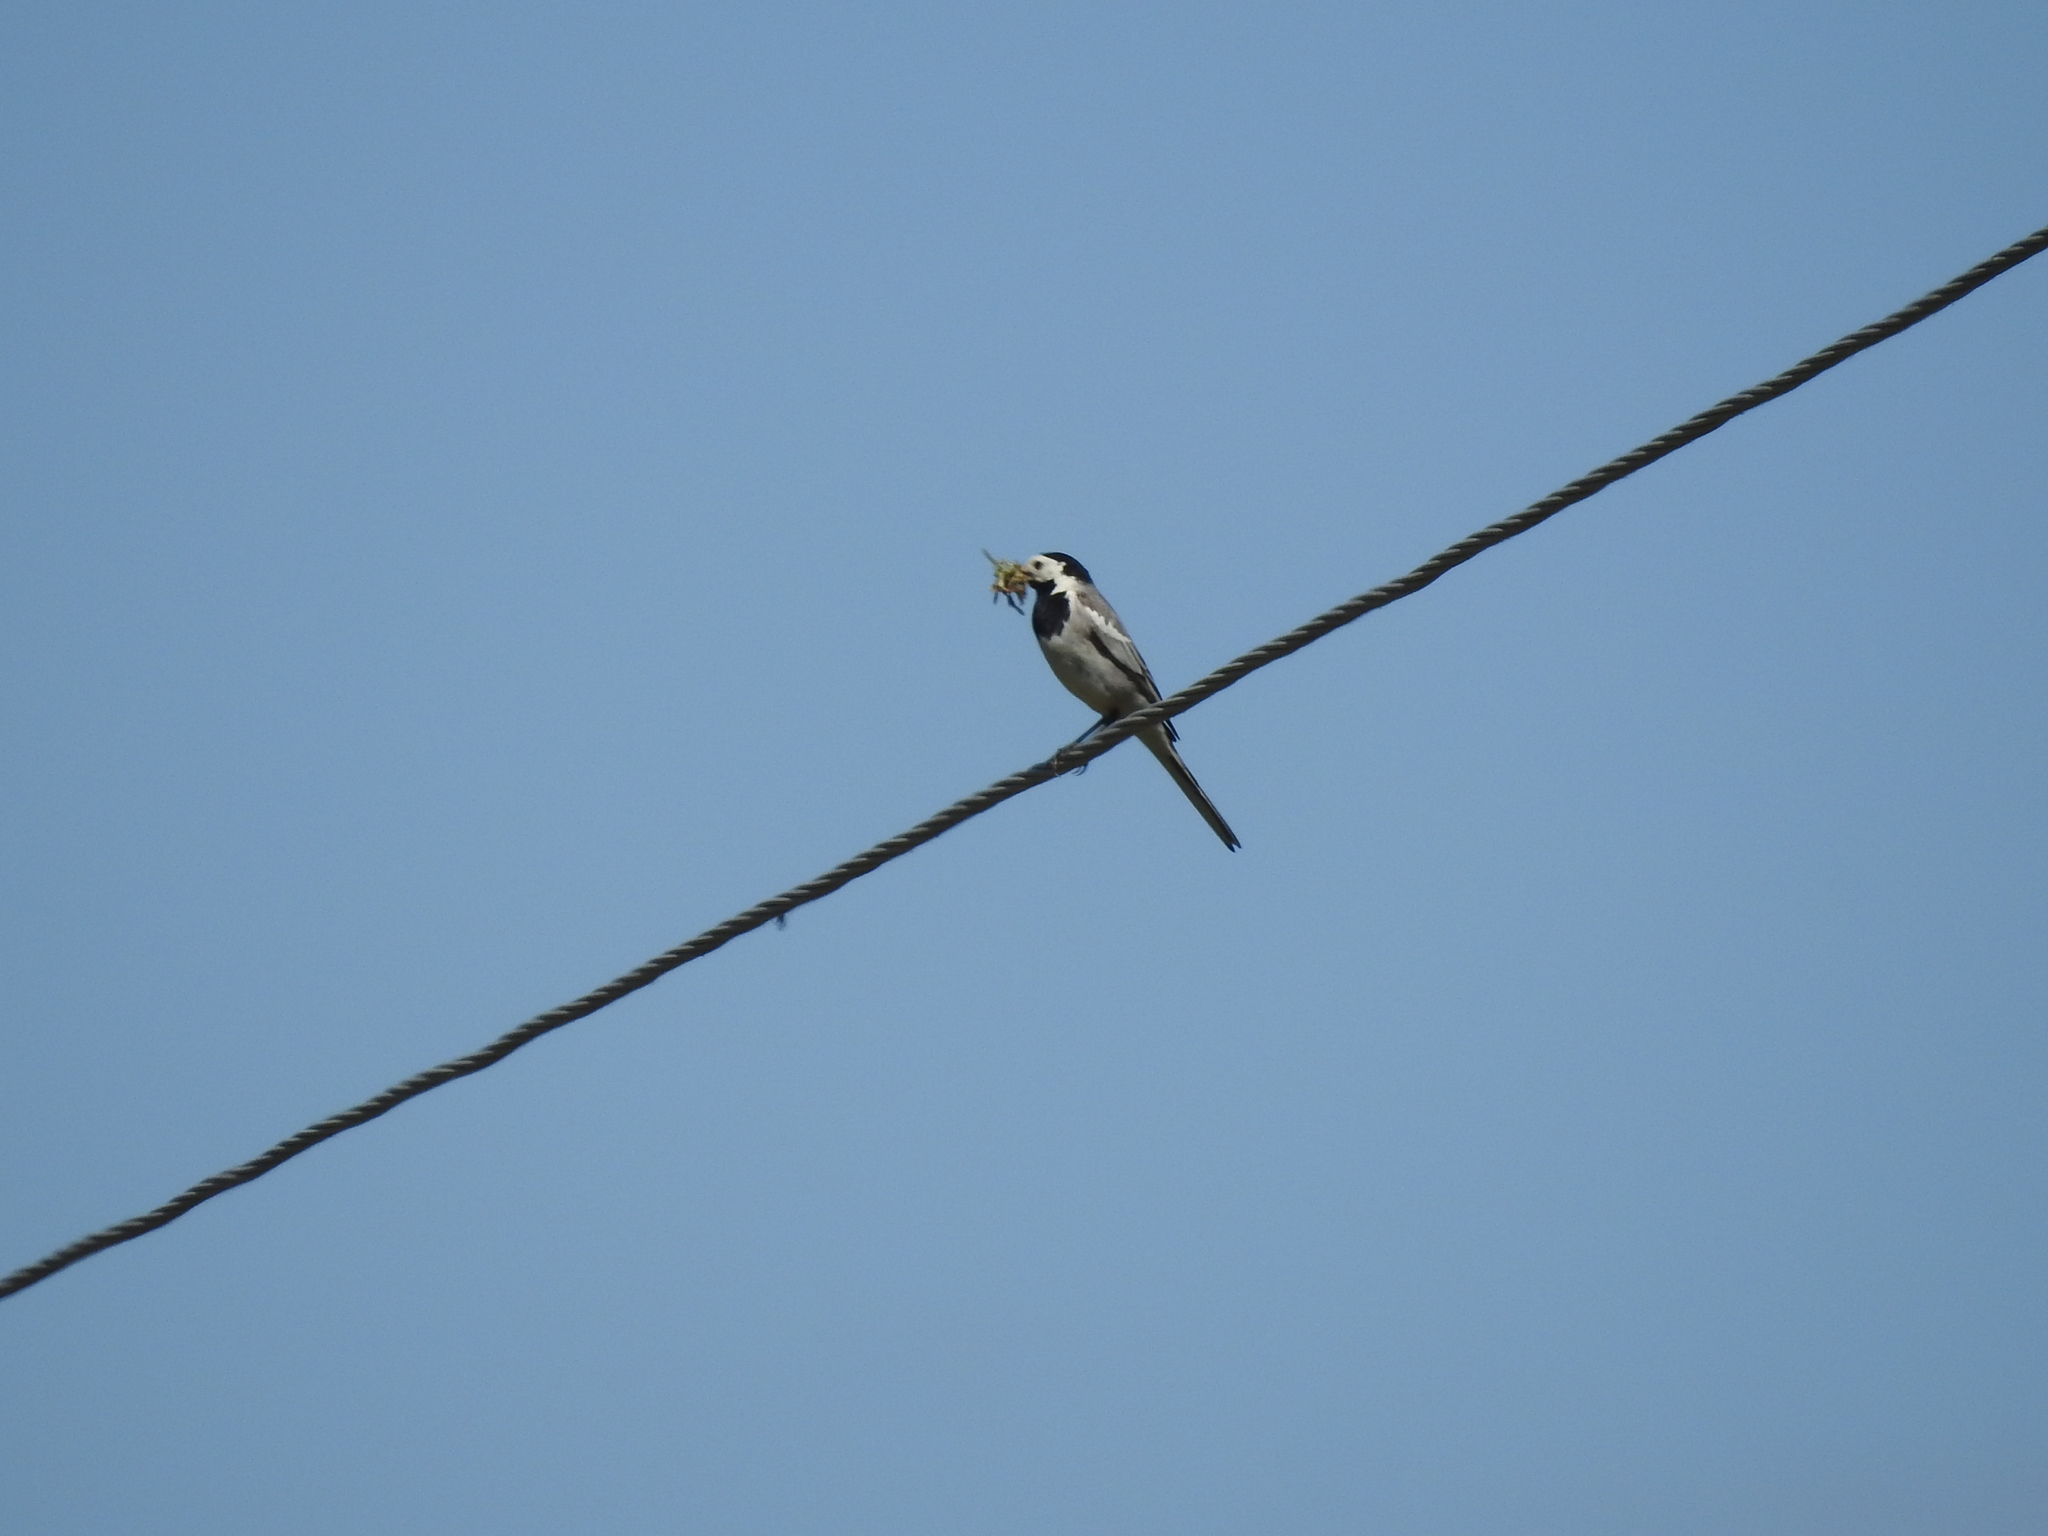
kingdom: Animalia
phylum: Chordata
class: Aves
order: Passeriformes
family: Motacillidae
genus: Motacilla
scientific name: Motacilla alba
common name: White wagtail
